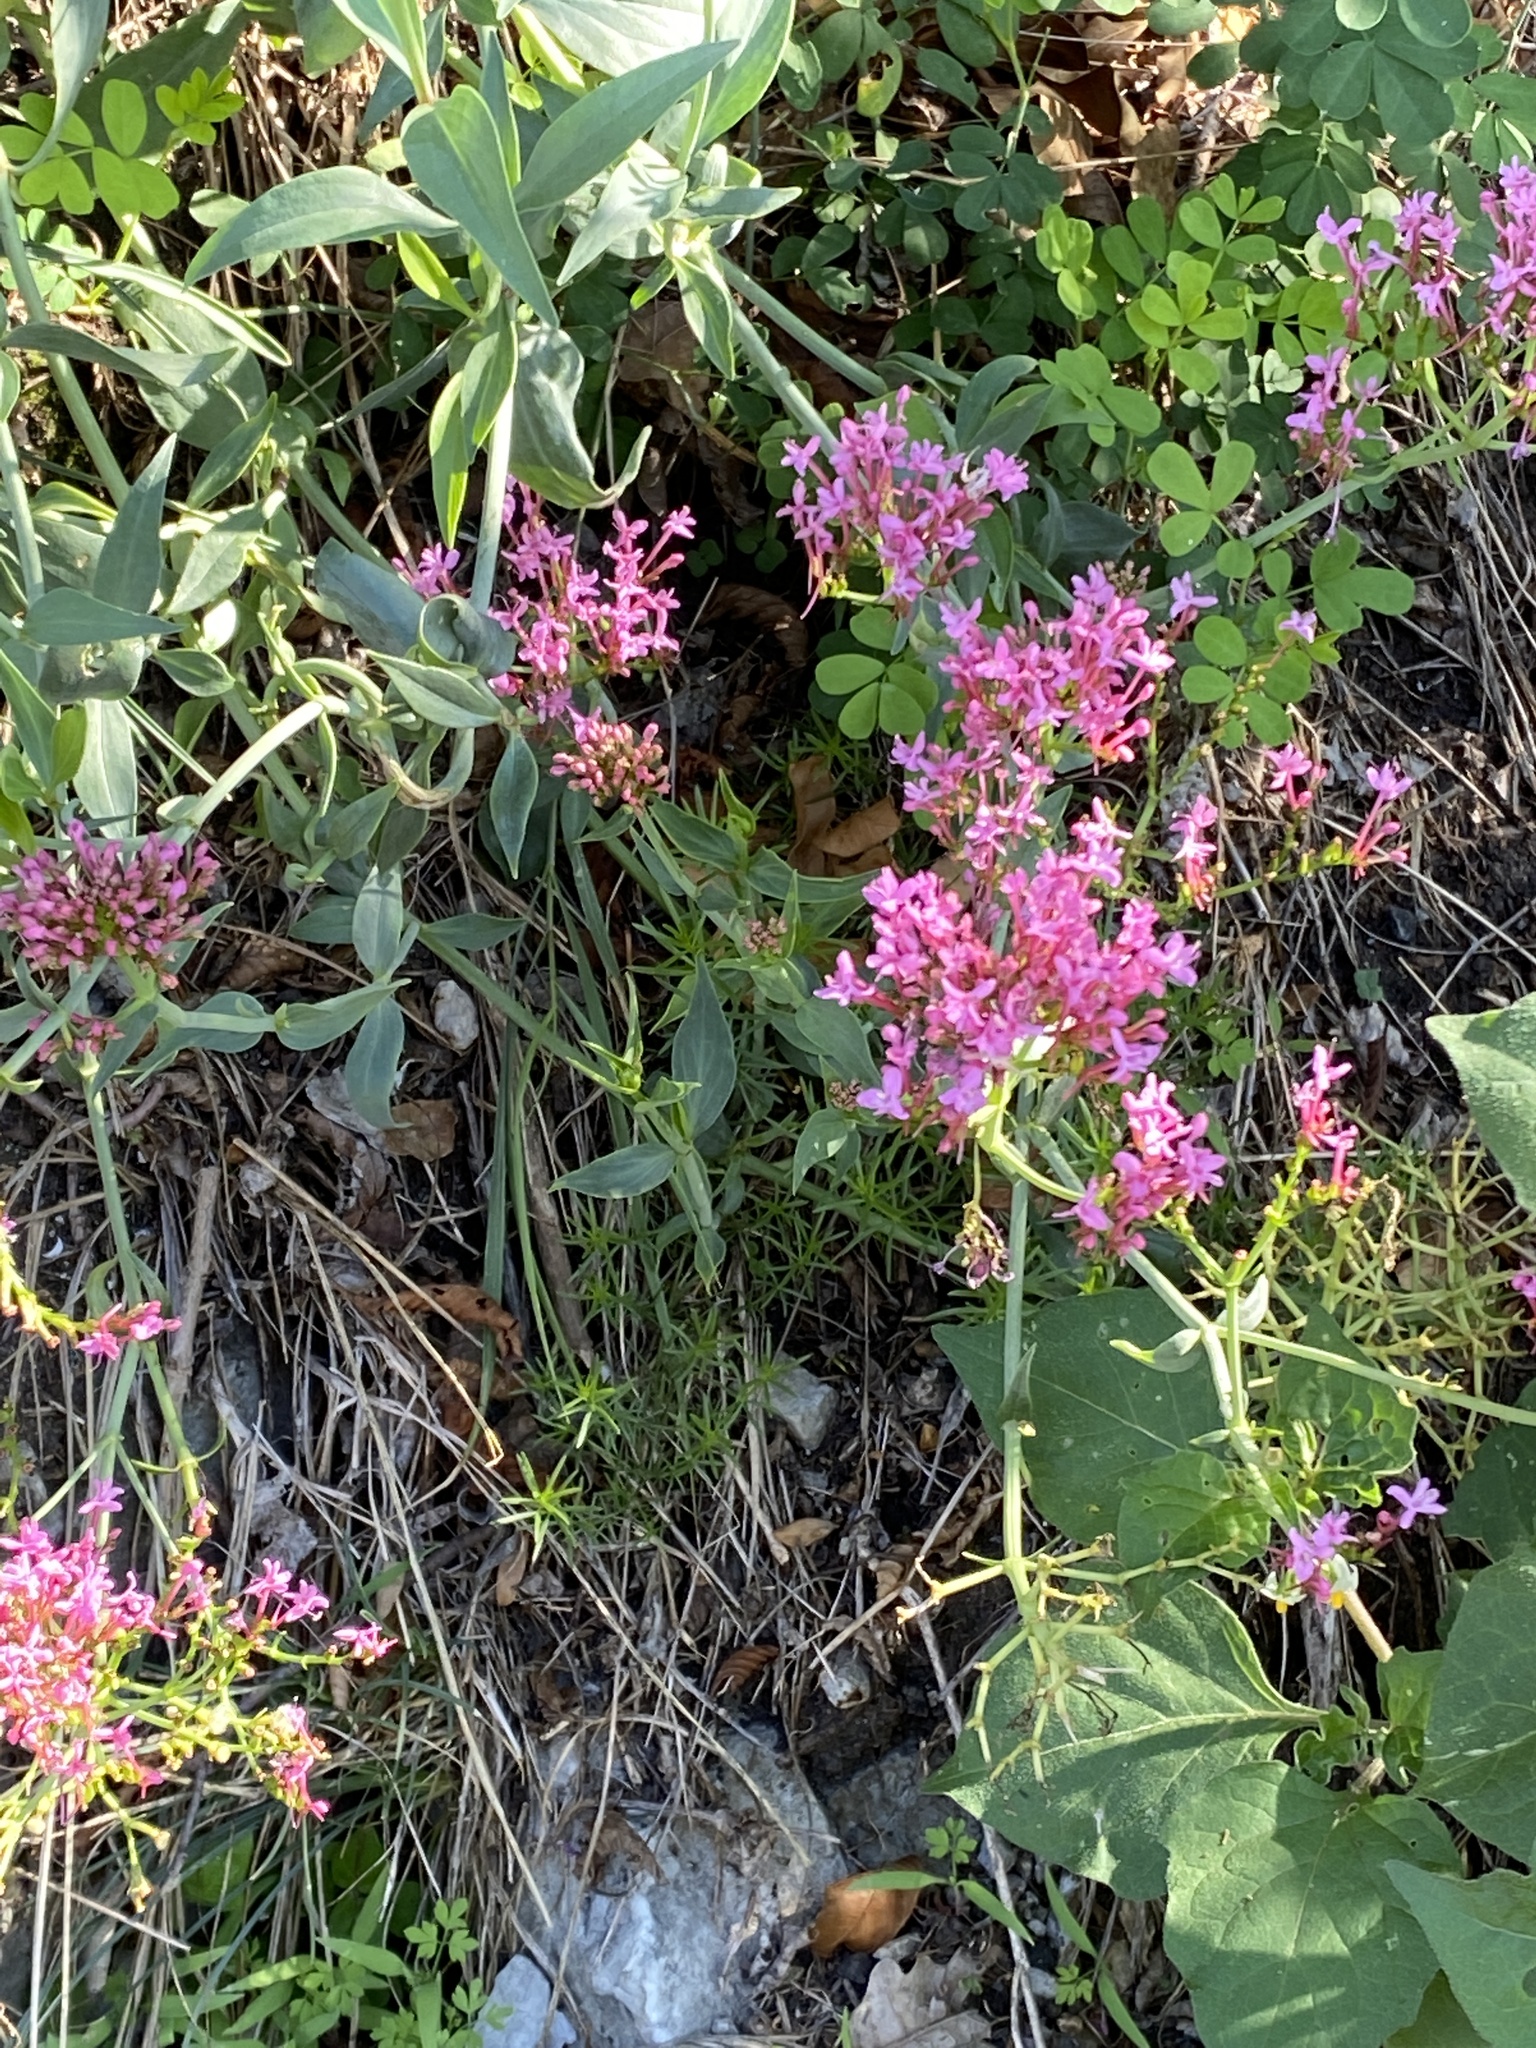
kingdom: Plantae
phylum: Tracheophyta
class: Magnoliopsida
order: Dipsacales
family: Caprifoliaceae
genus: Centranthus
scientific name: Centranthus ruber
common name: Red valerian
